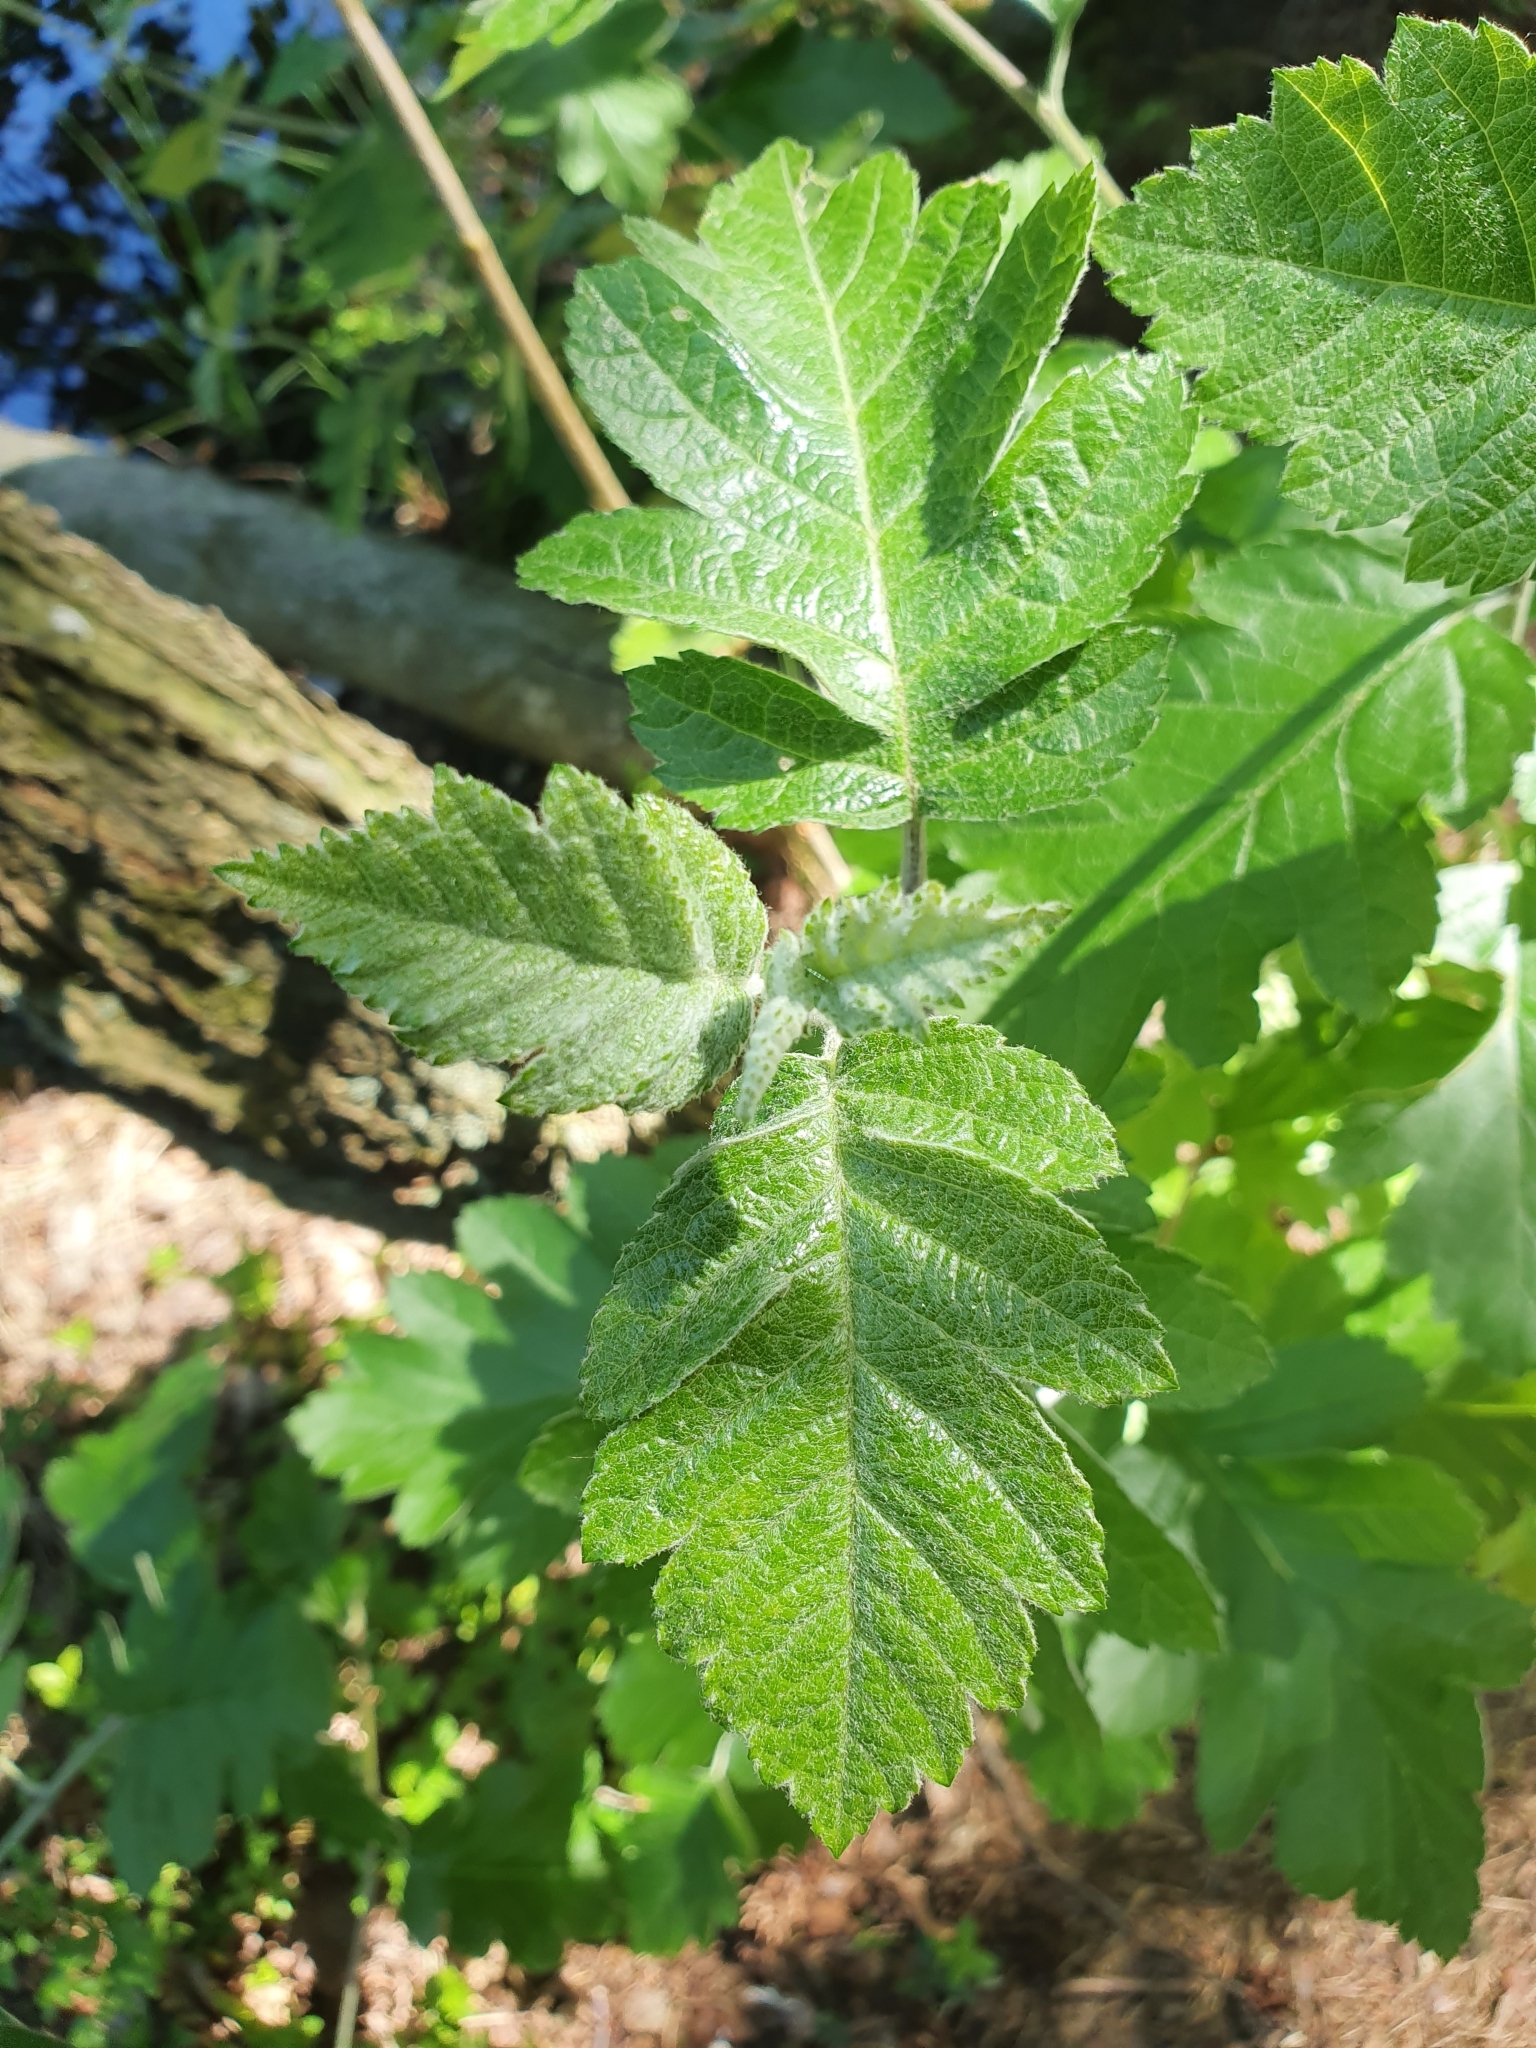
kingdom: Plantae
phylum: Tracheophyta
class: Magnoliopsida
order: Rosales
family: Rosaceae
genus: Scandosorbus
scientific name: Scandosorbus intermedia
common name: Swedish whitebeam
